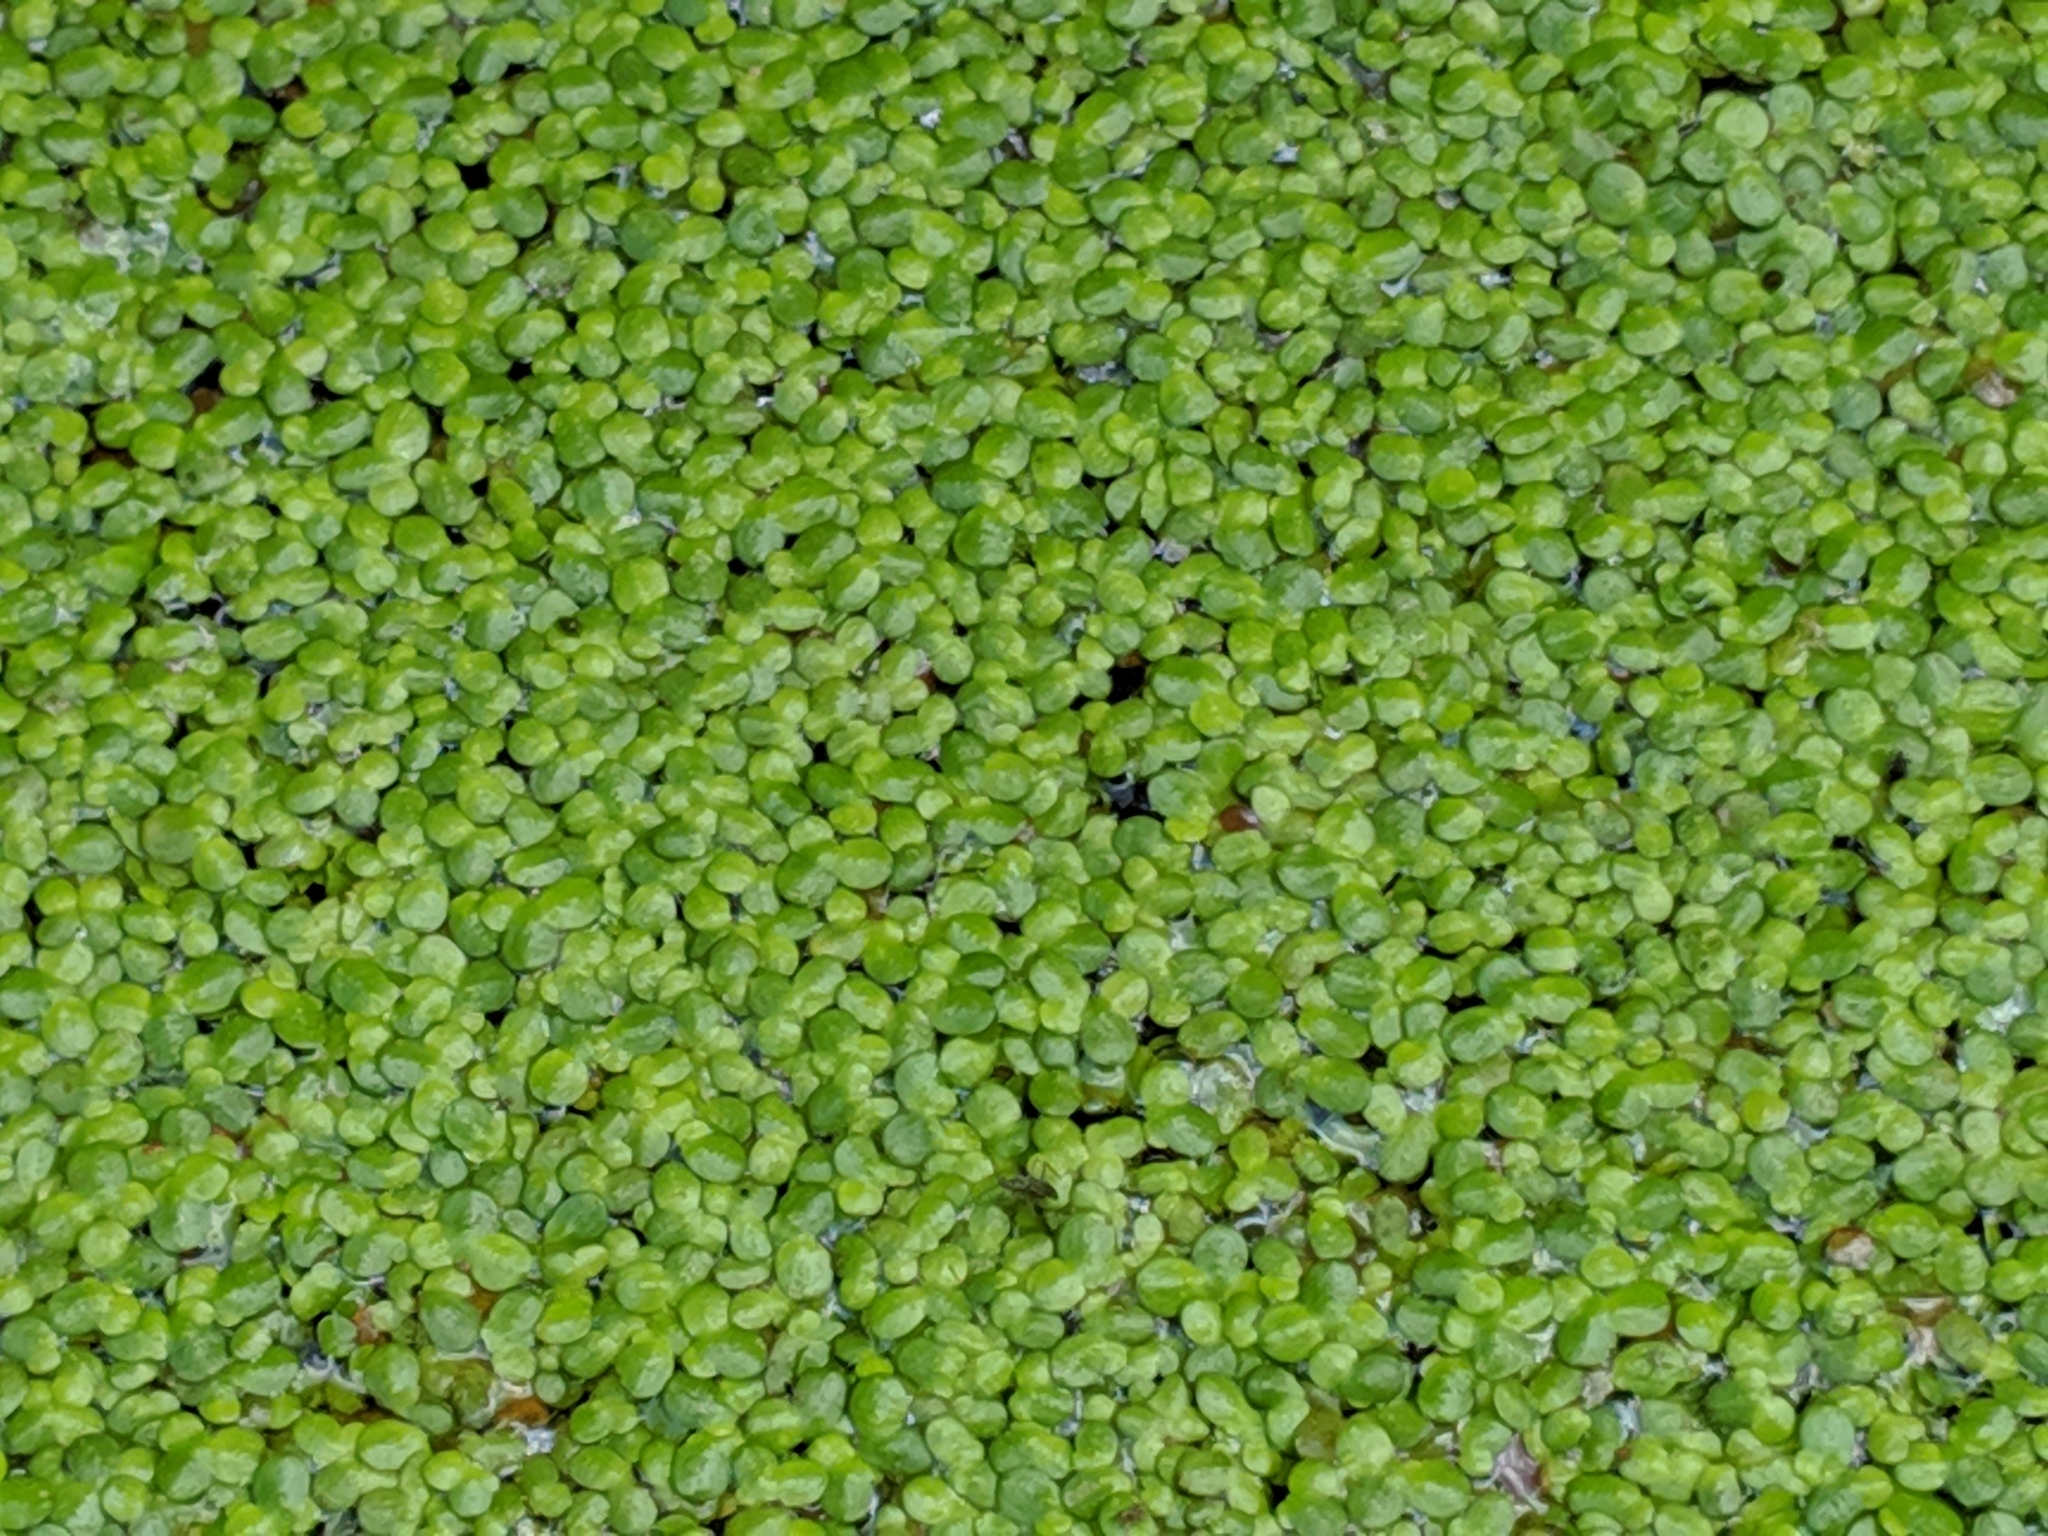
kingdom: Plantae
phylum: Tracheophyta
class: Liliopsida
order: Alismatales
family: Araceae
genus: Lemna
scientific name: Lemna minor
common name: Common duckweed
